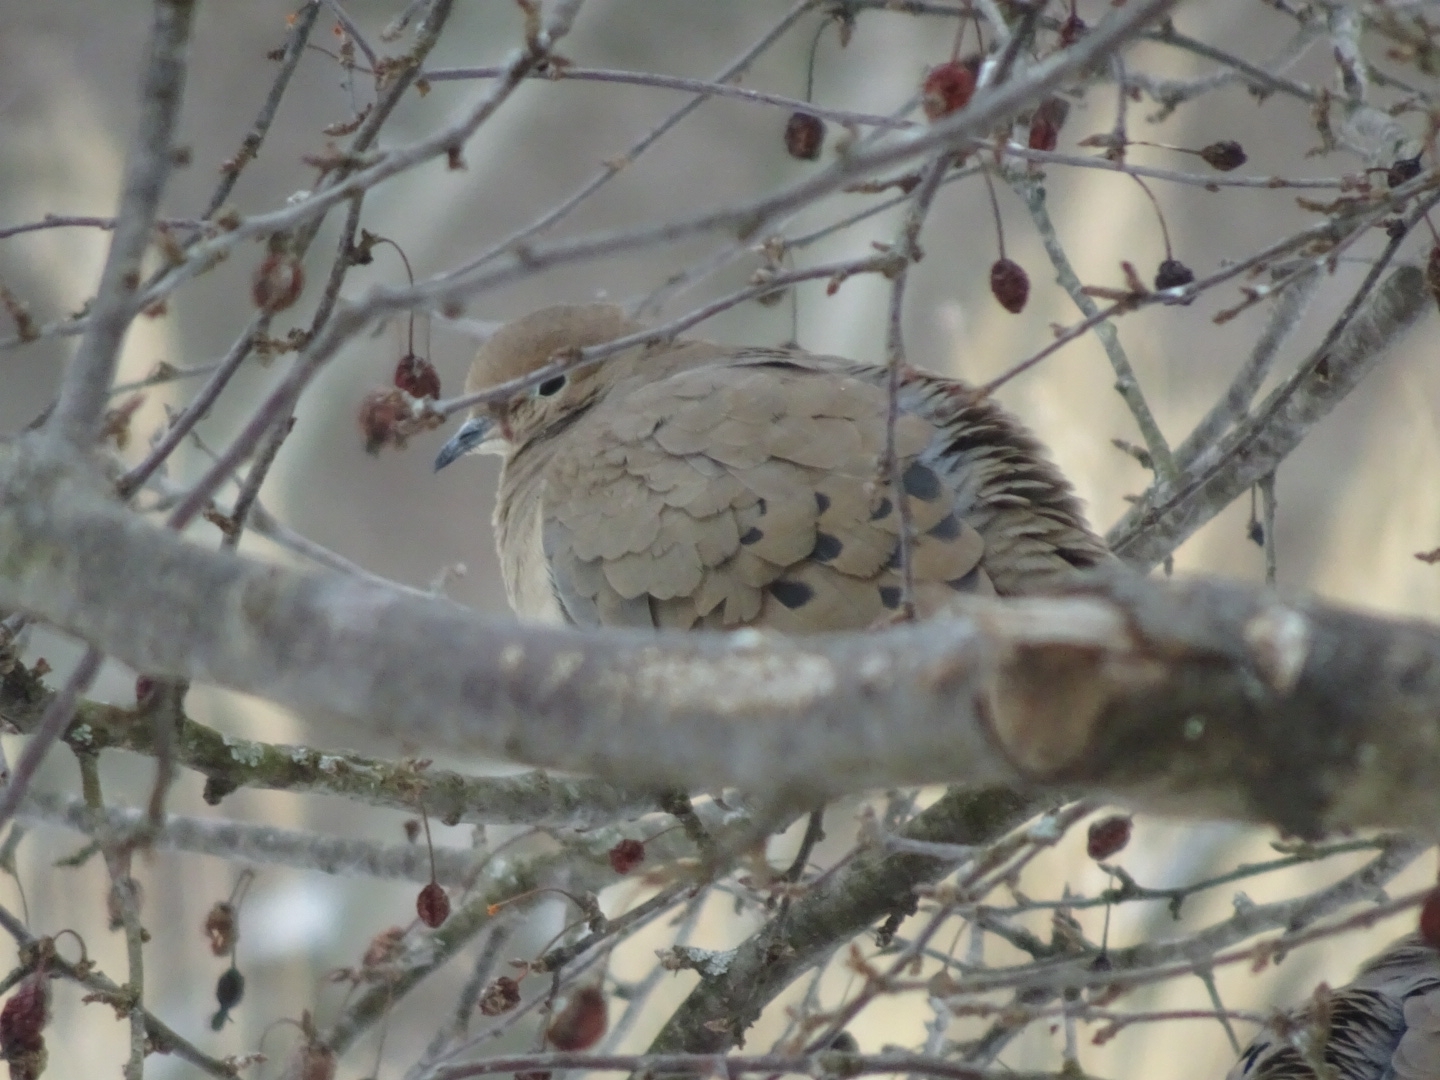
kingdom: Animalia
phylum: Chordata
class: Aves
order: Columbiformes
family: Columbidae
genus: Zenaida
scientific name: Zenaida macroura
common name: Mourning dove
